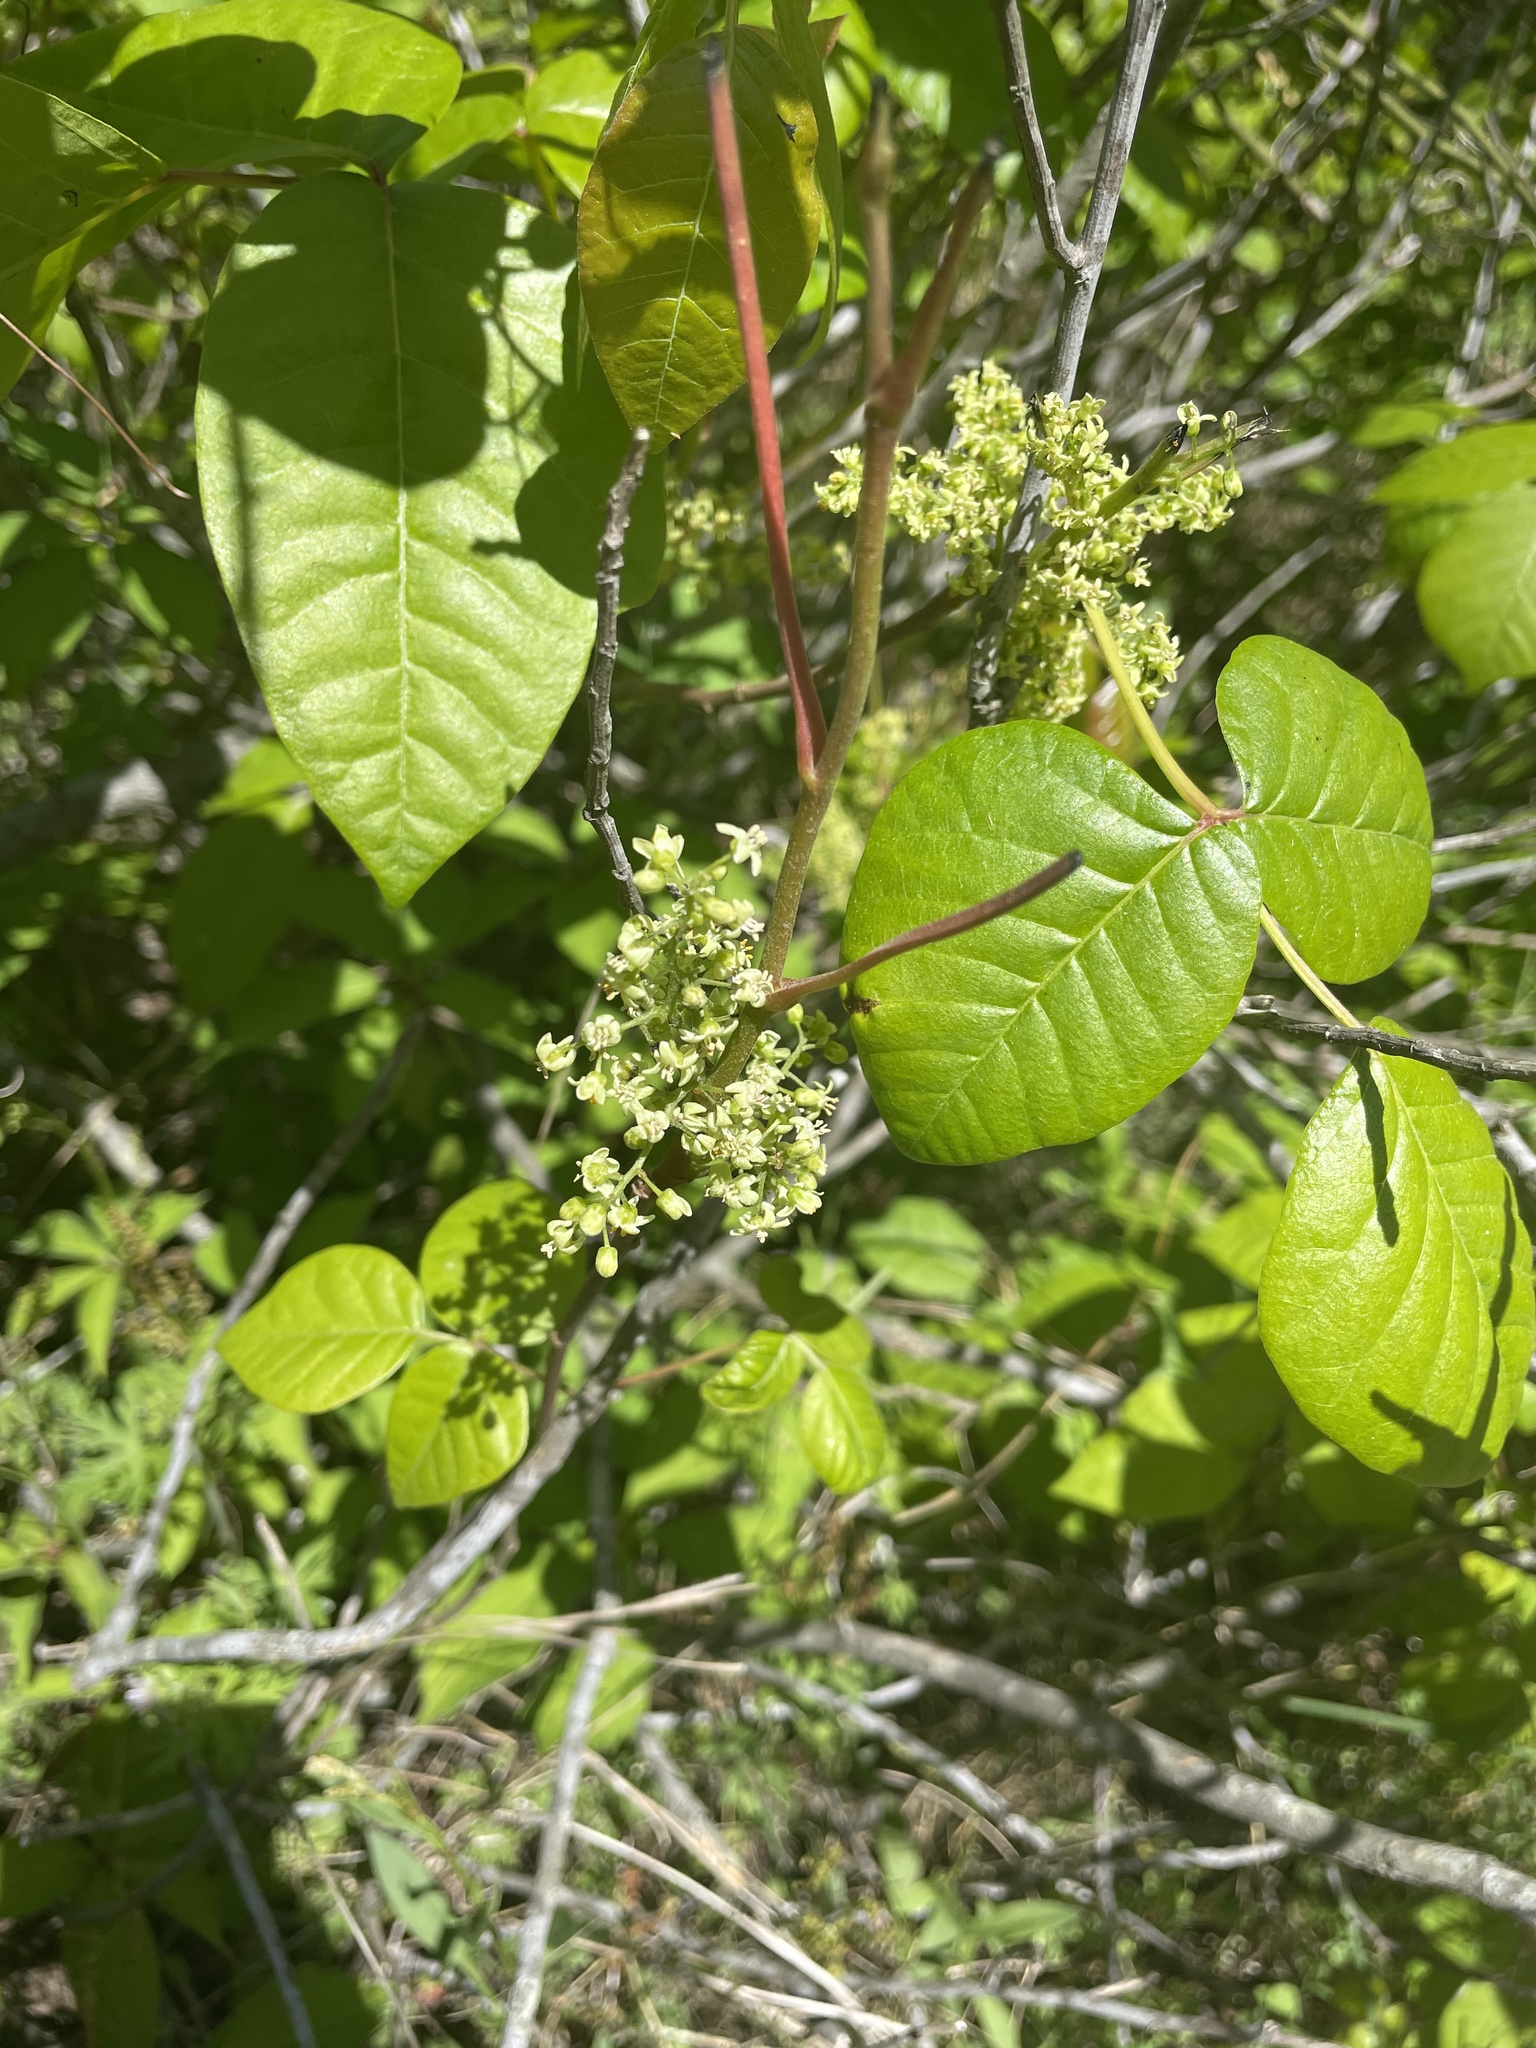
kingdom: Plantae
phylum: Tracheophyta
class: Magnoliopsida
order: Sapindales
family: Anacardiaceae
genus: Toxicodendron
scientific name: Toxicodendron radicans
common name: Poison ivy
